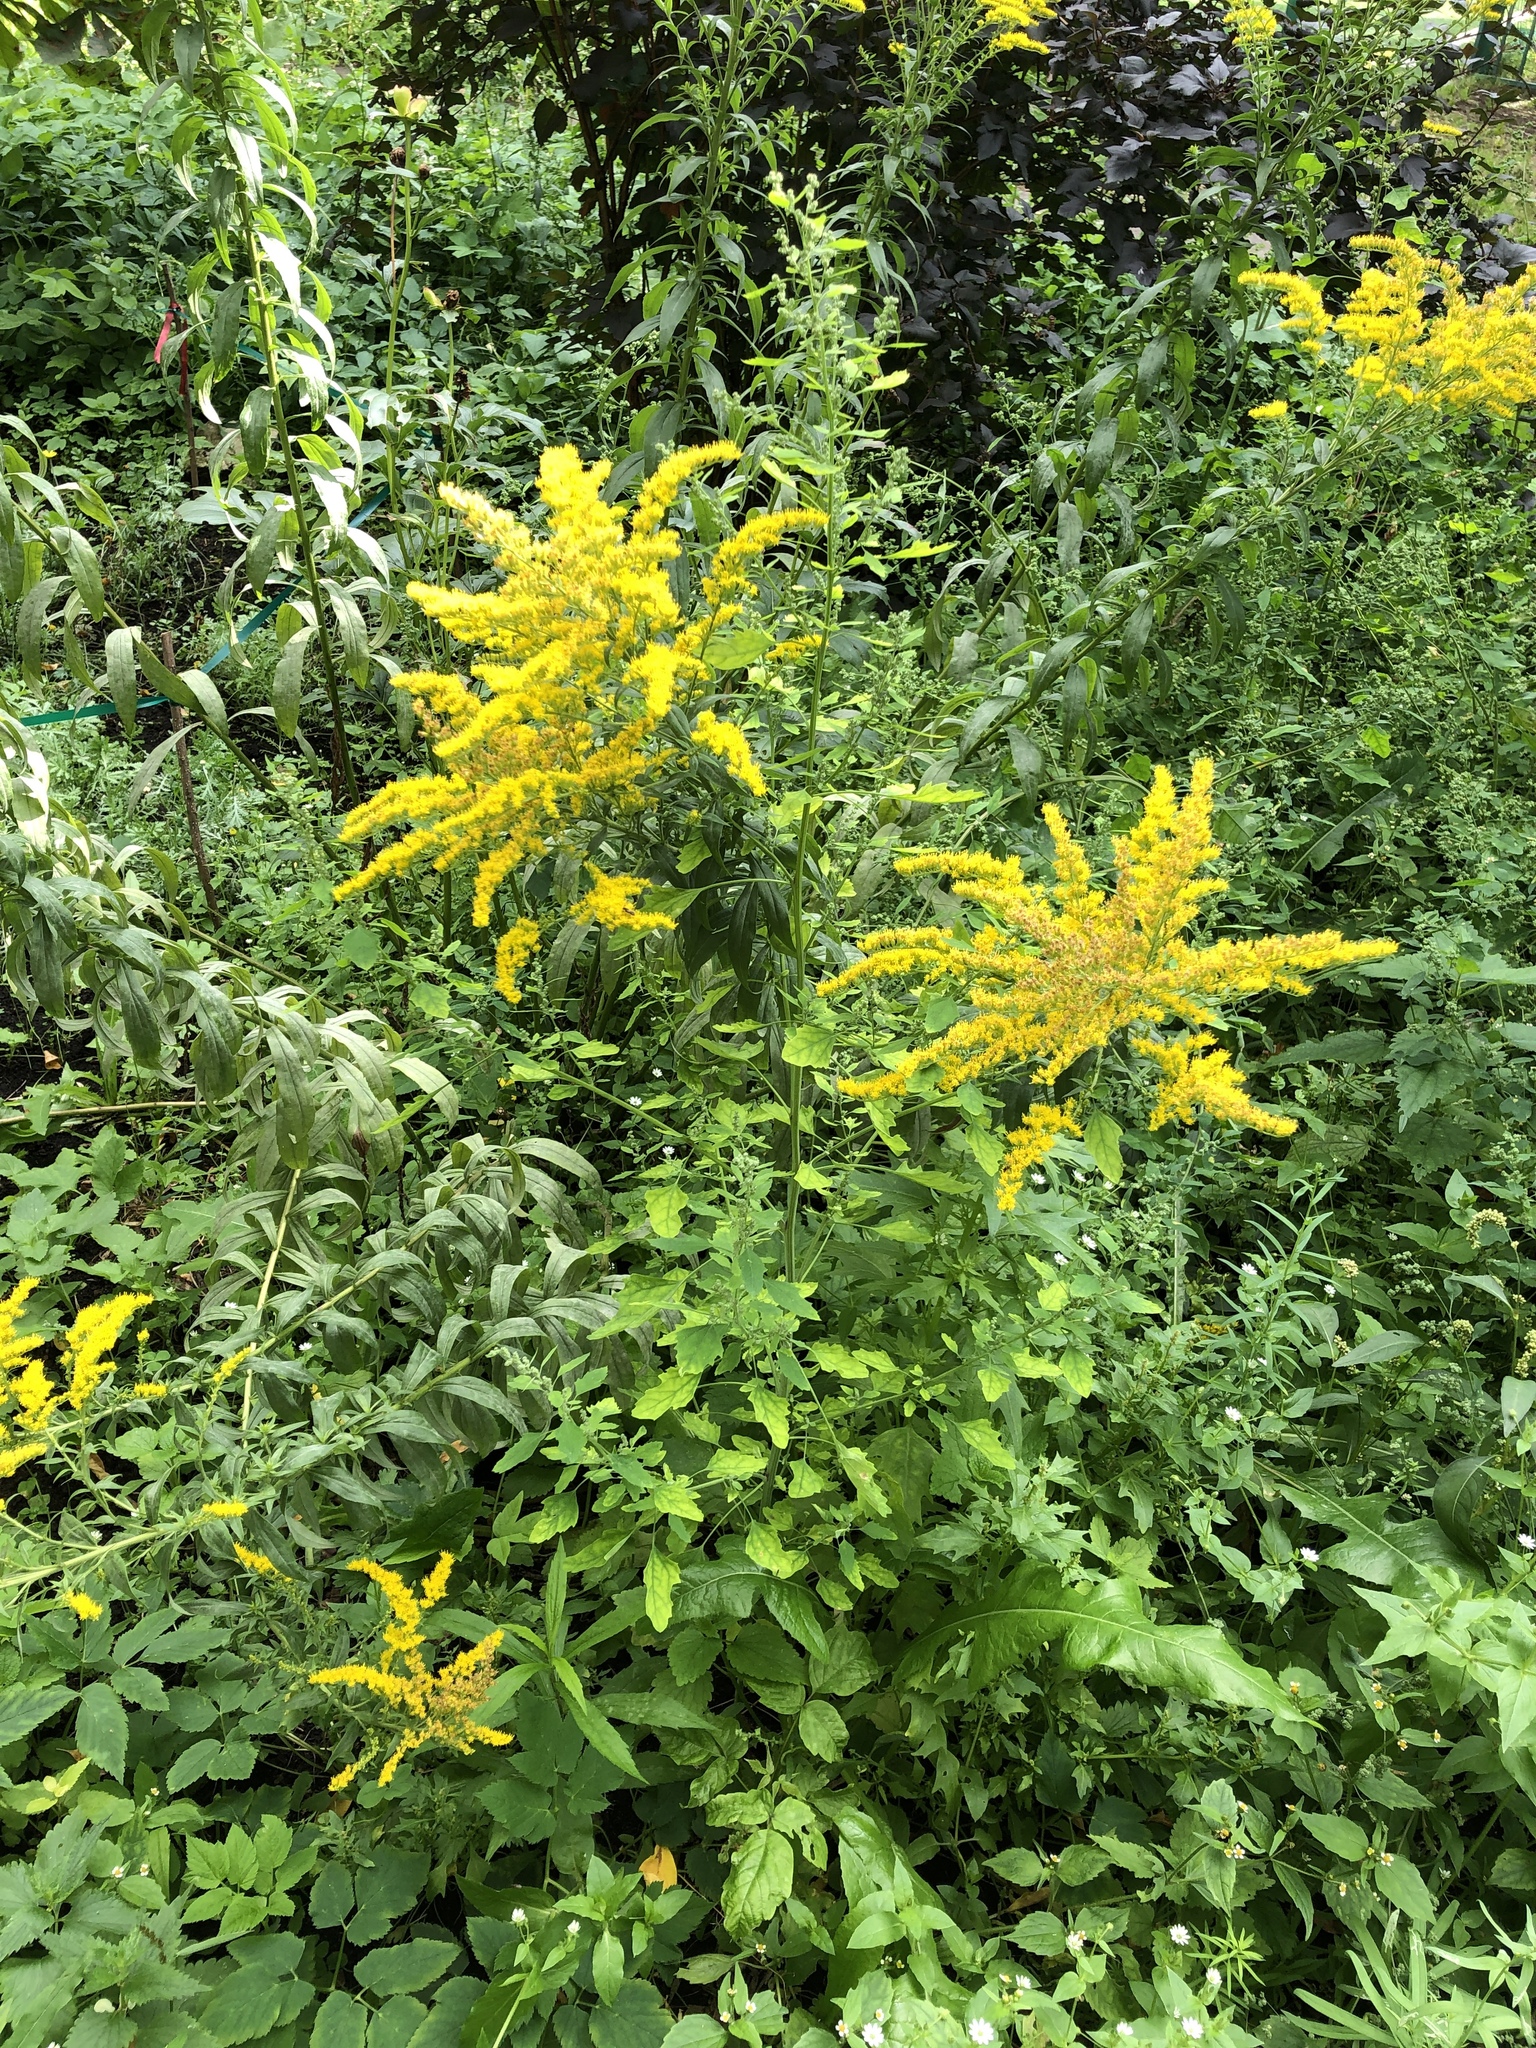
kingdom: Plantae
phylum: Tracheophyta
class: Magnoliopsida
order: Asterales
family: Asteraceae
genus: Solidago
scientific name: Solidago canadensis
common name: Canada goldenrod
